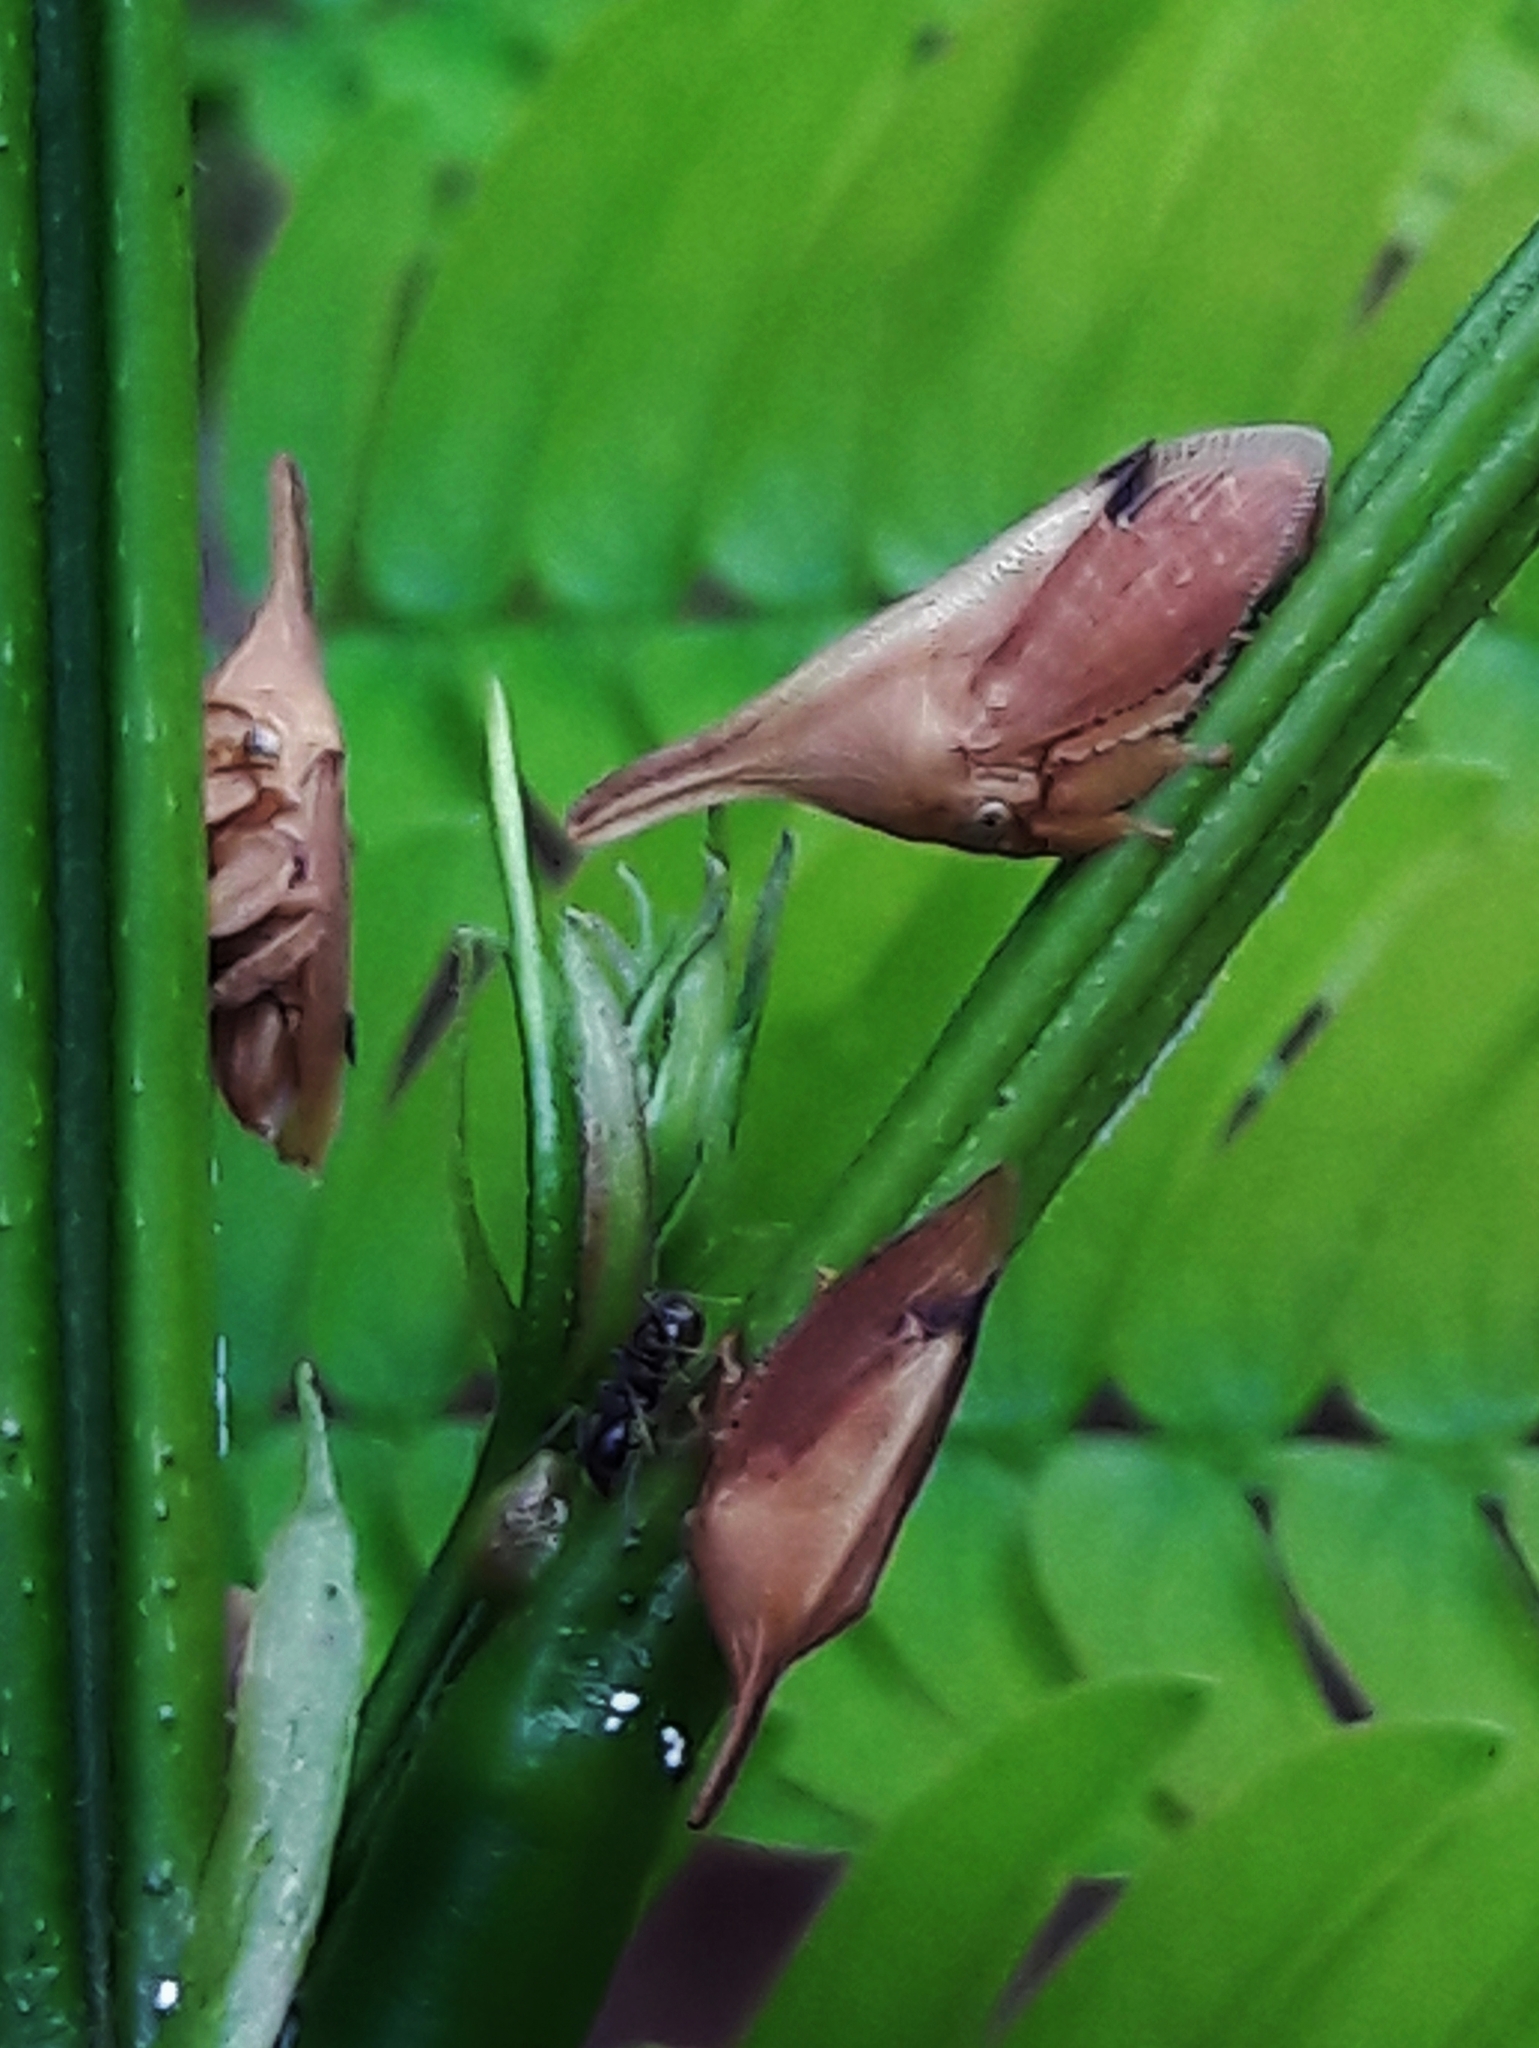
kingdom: Animalia
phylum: Arthropoda
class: Insecta
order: Hemiptera
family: Membracidae
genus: Enchenopa
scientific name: Enchenopa concolor
